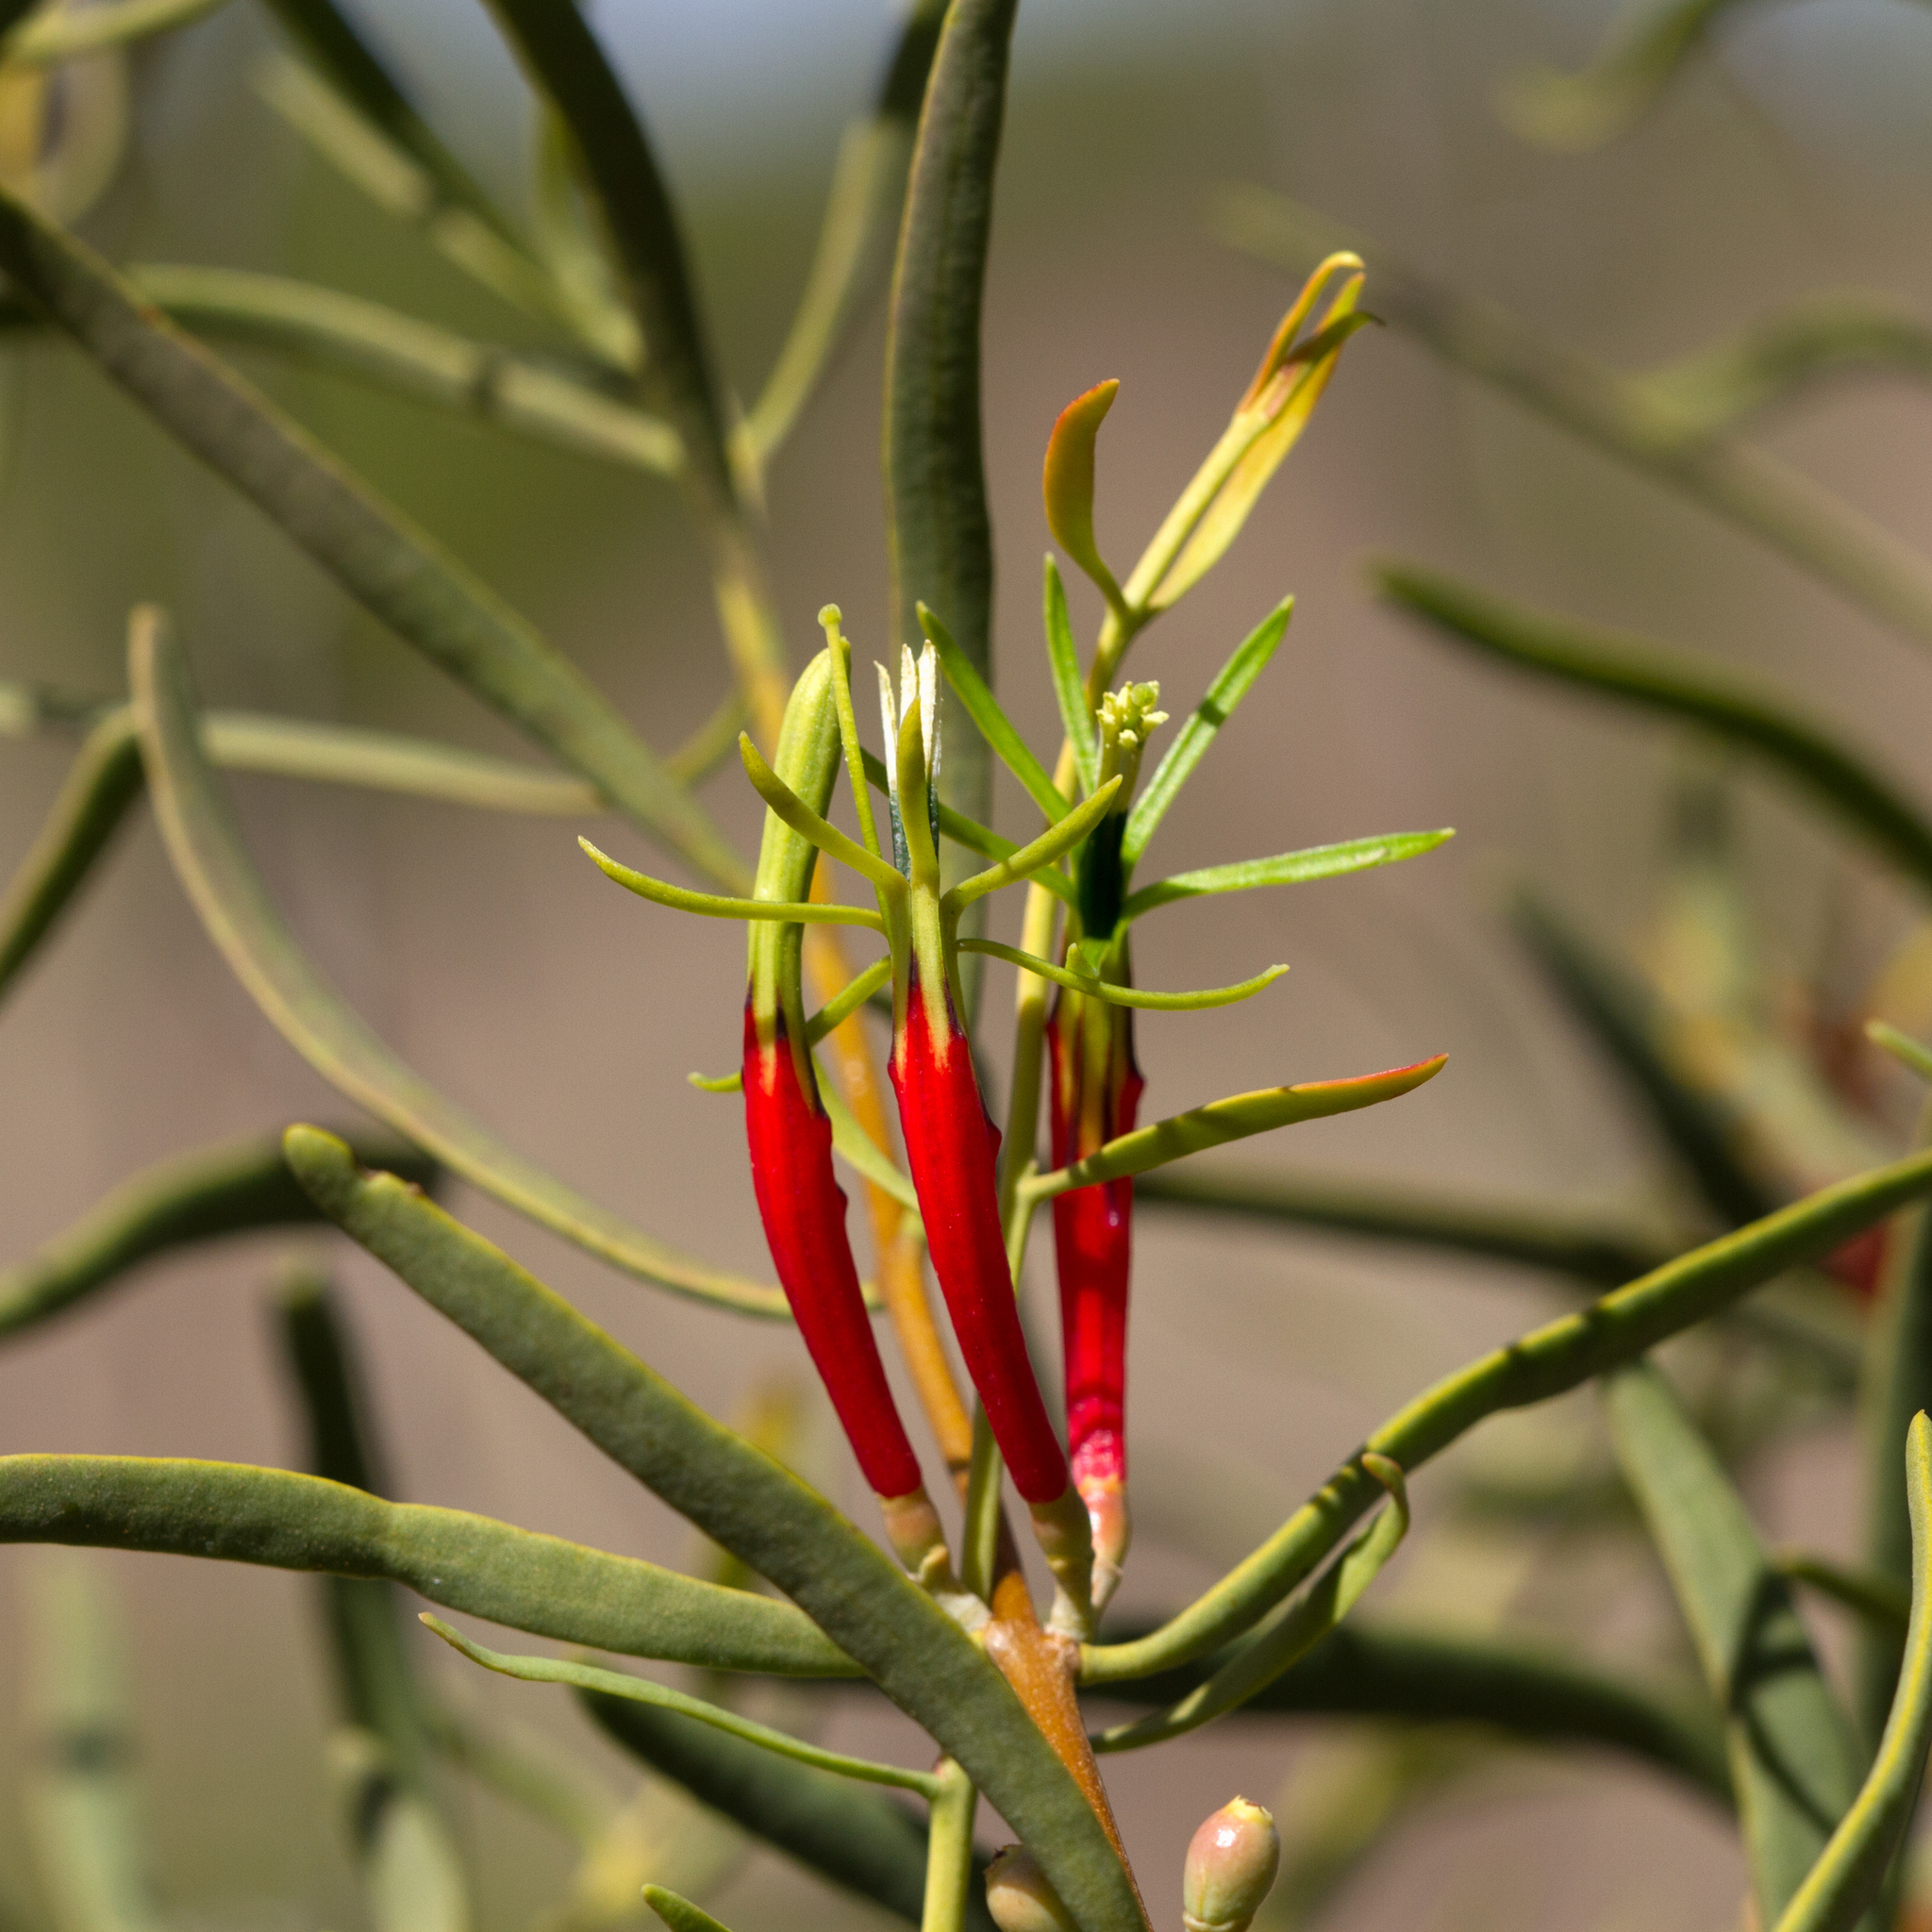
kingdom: Plantae
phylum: Tracheophyta
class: Magnoliopsida
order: Santalales
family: Loranthaceae
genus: Lysiana
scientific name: Lysiana exocarpi
